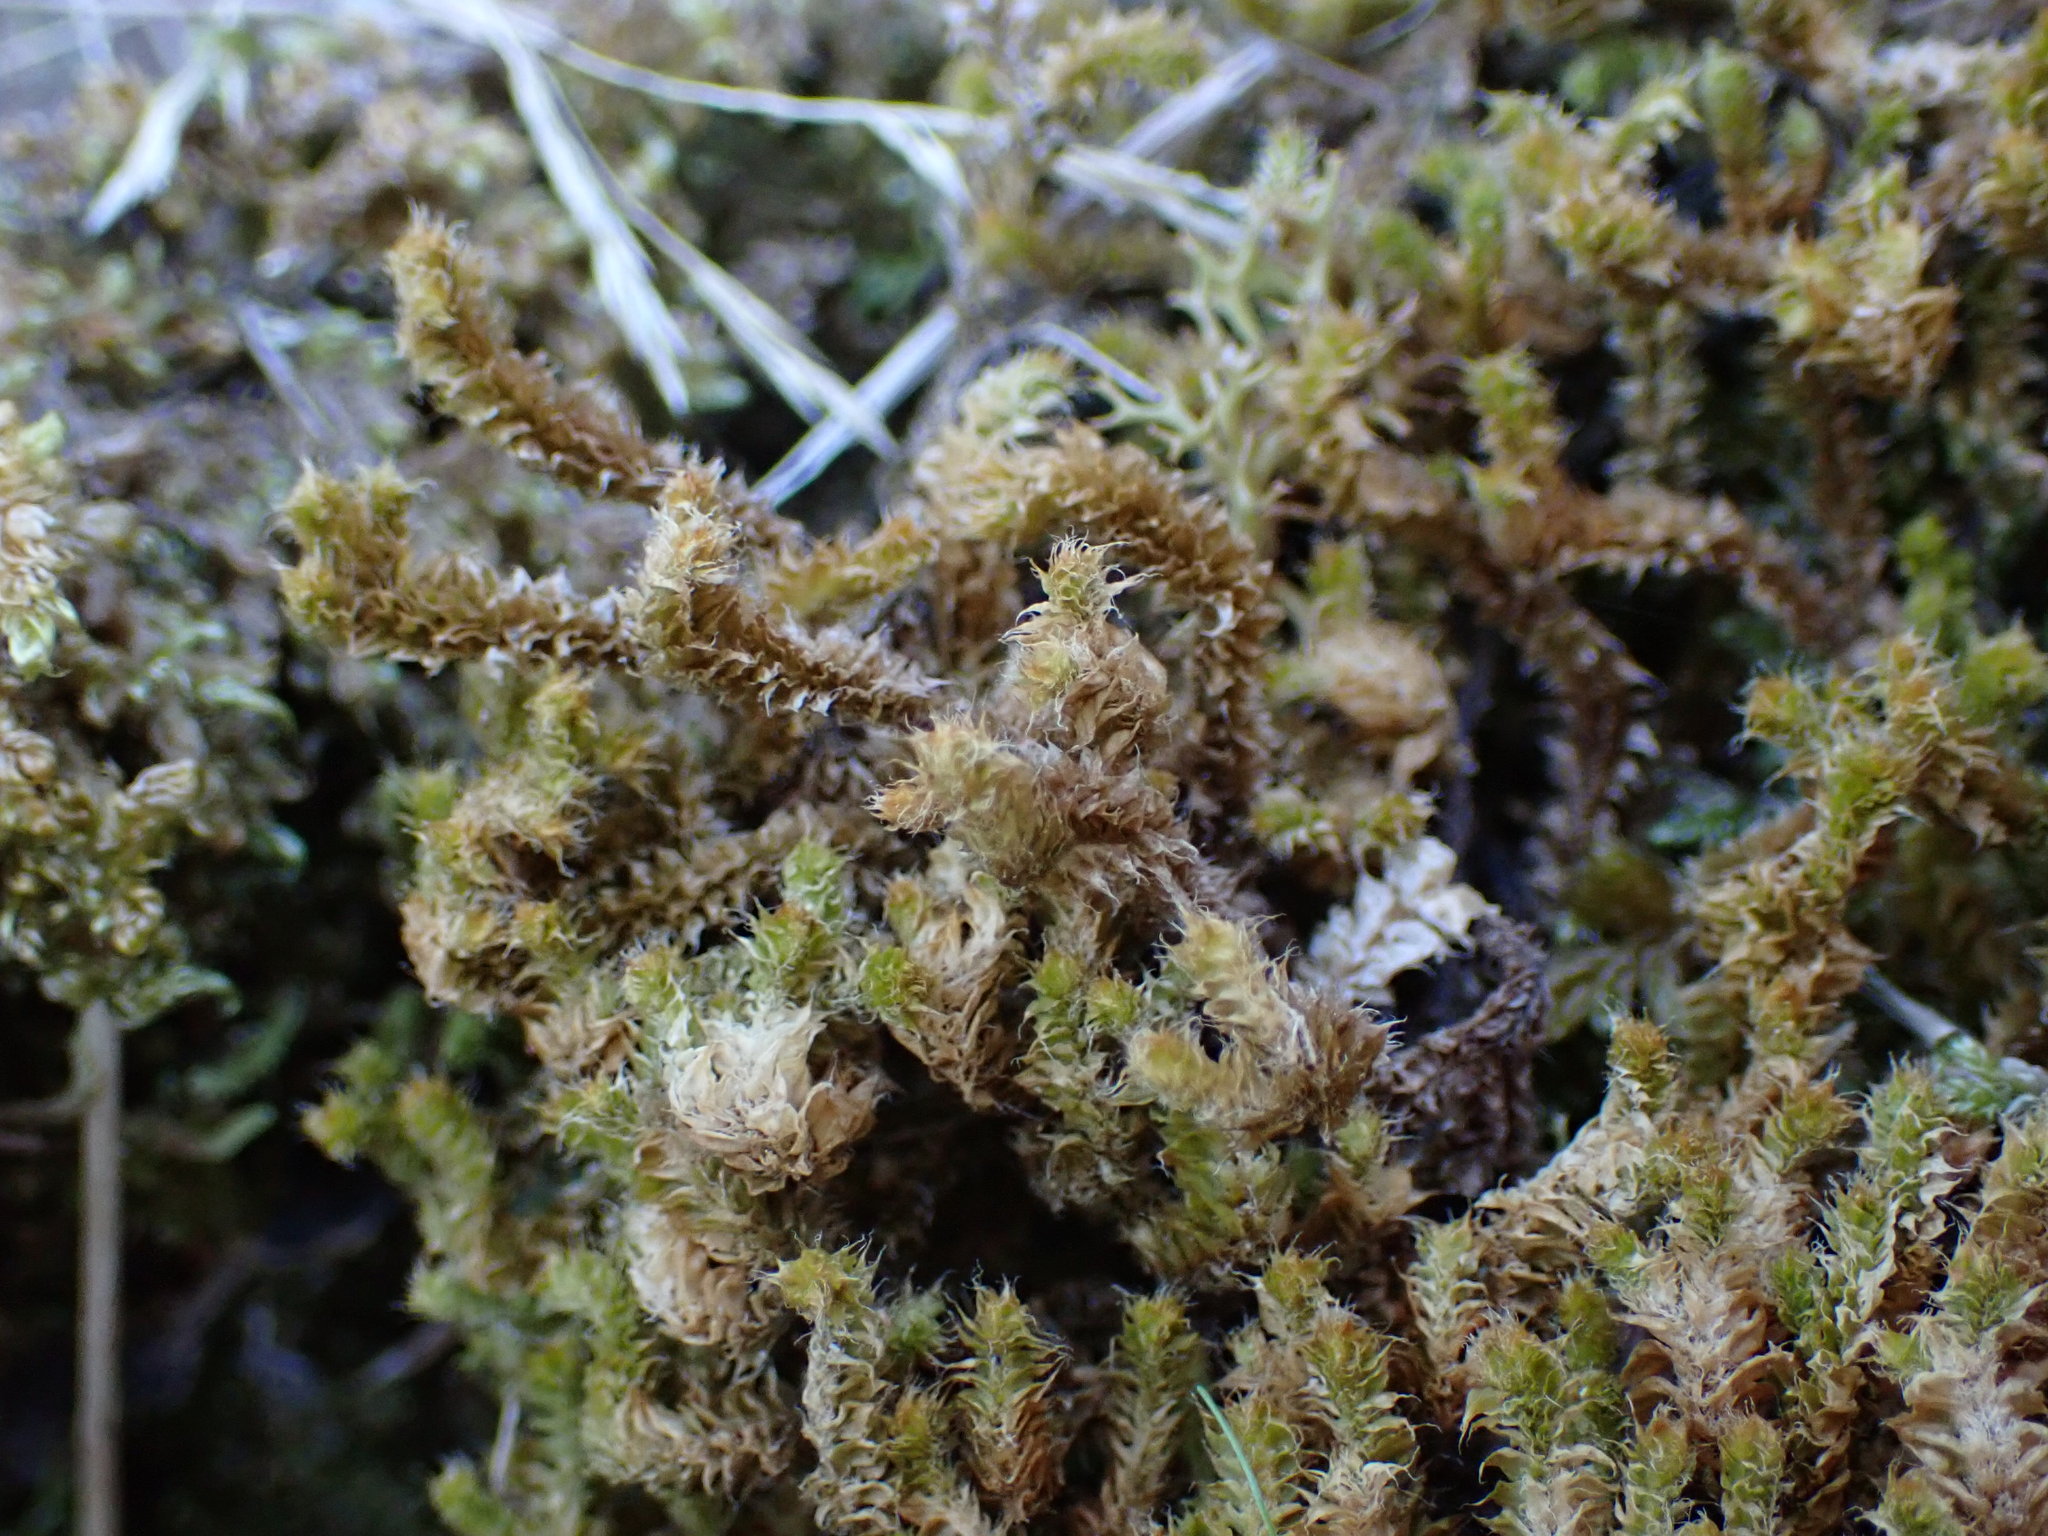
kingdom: Plantae
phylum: Marchantiophyta
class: Jungermanniopsida
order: Jungermanniales
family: Anastrophyllaceae
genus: Chandonanthus
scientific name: Chandonanthus squarrosus
